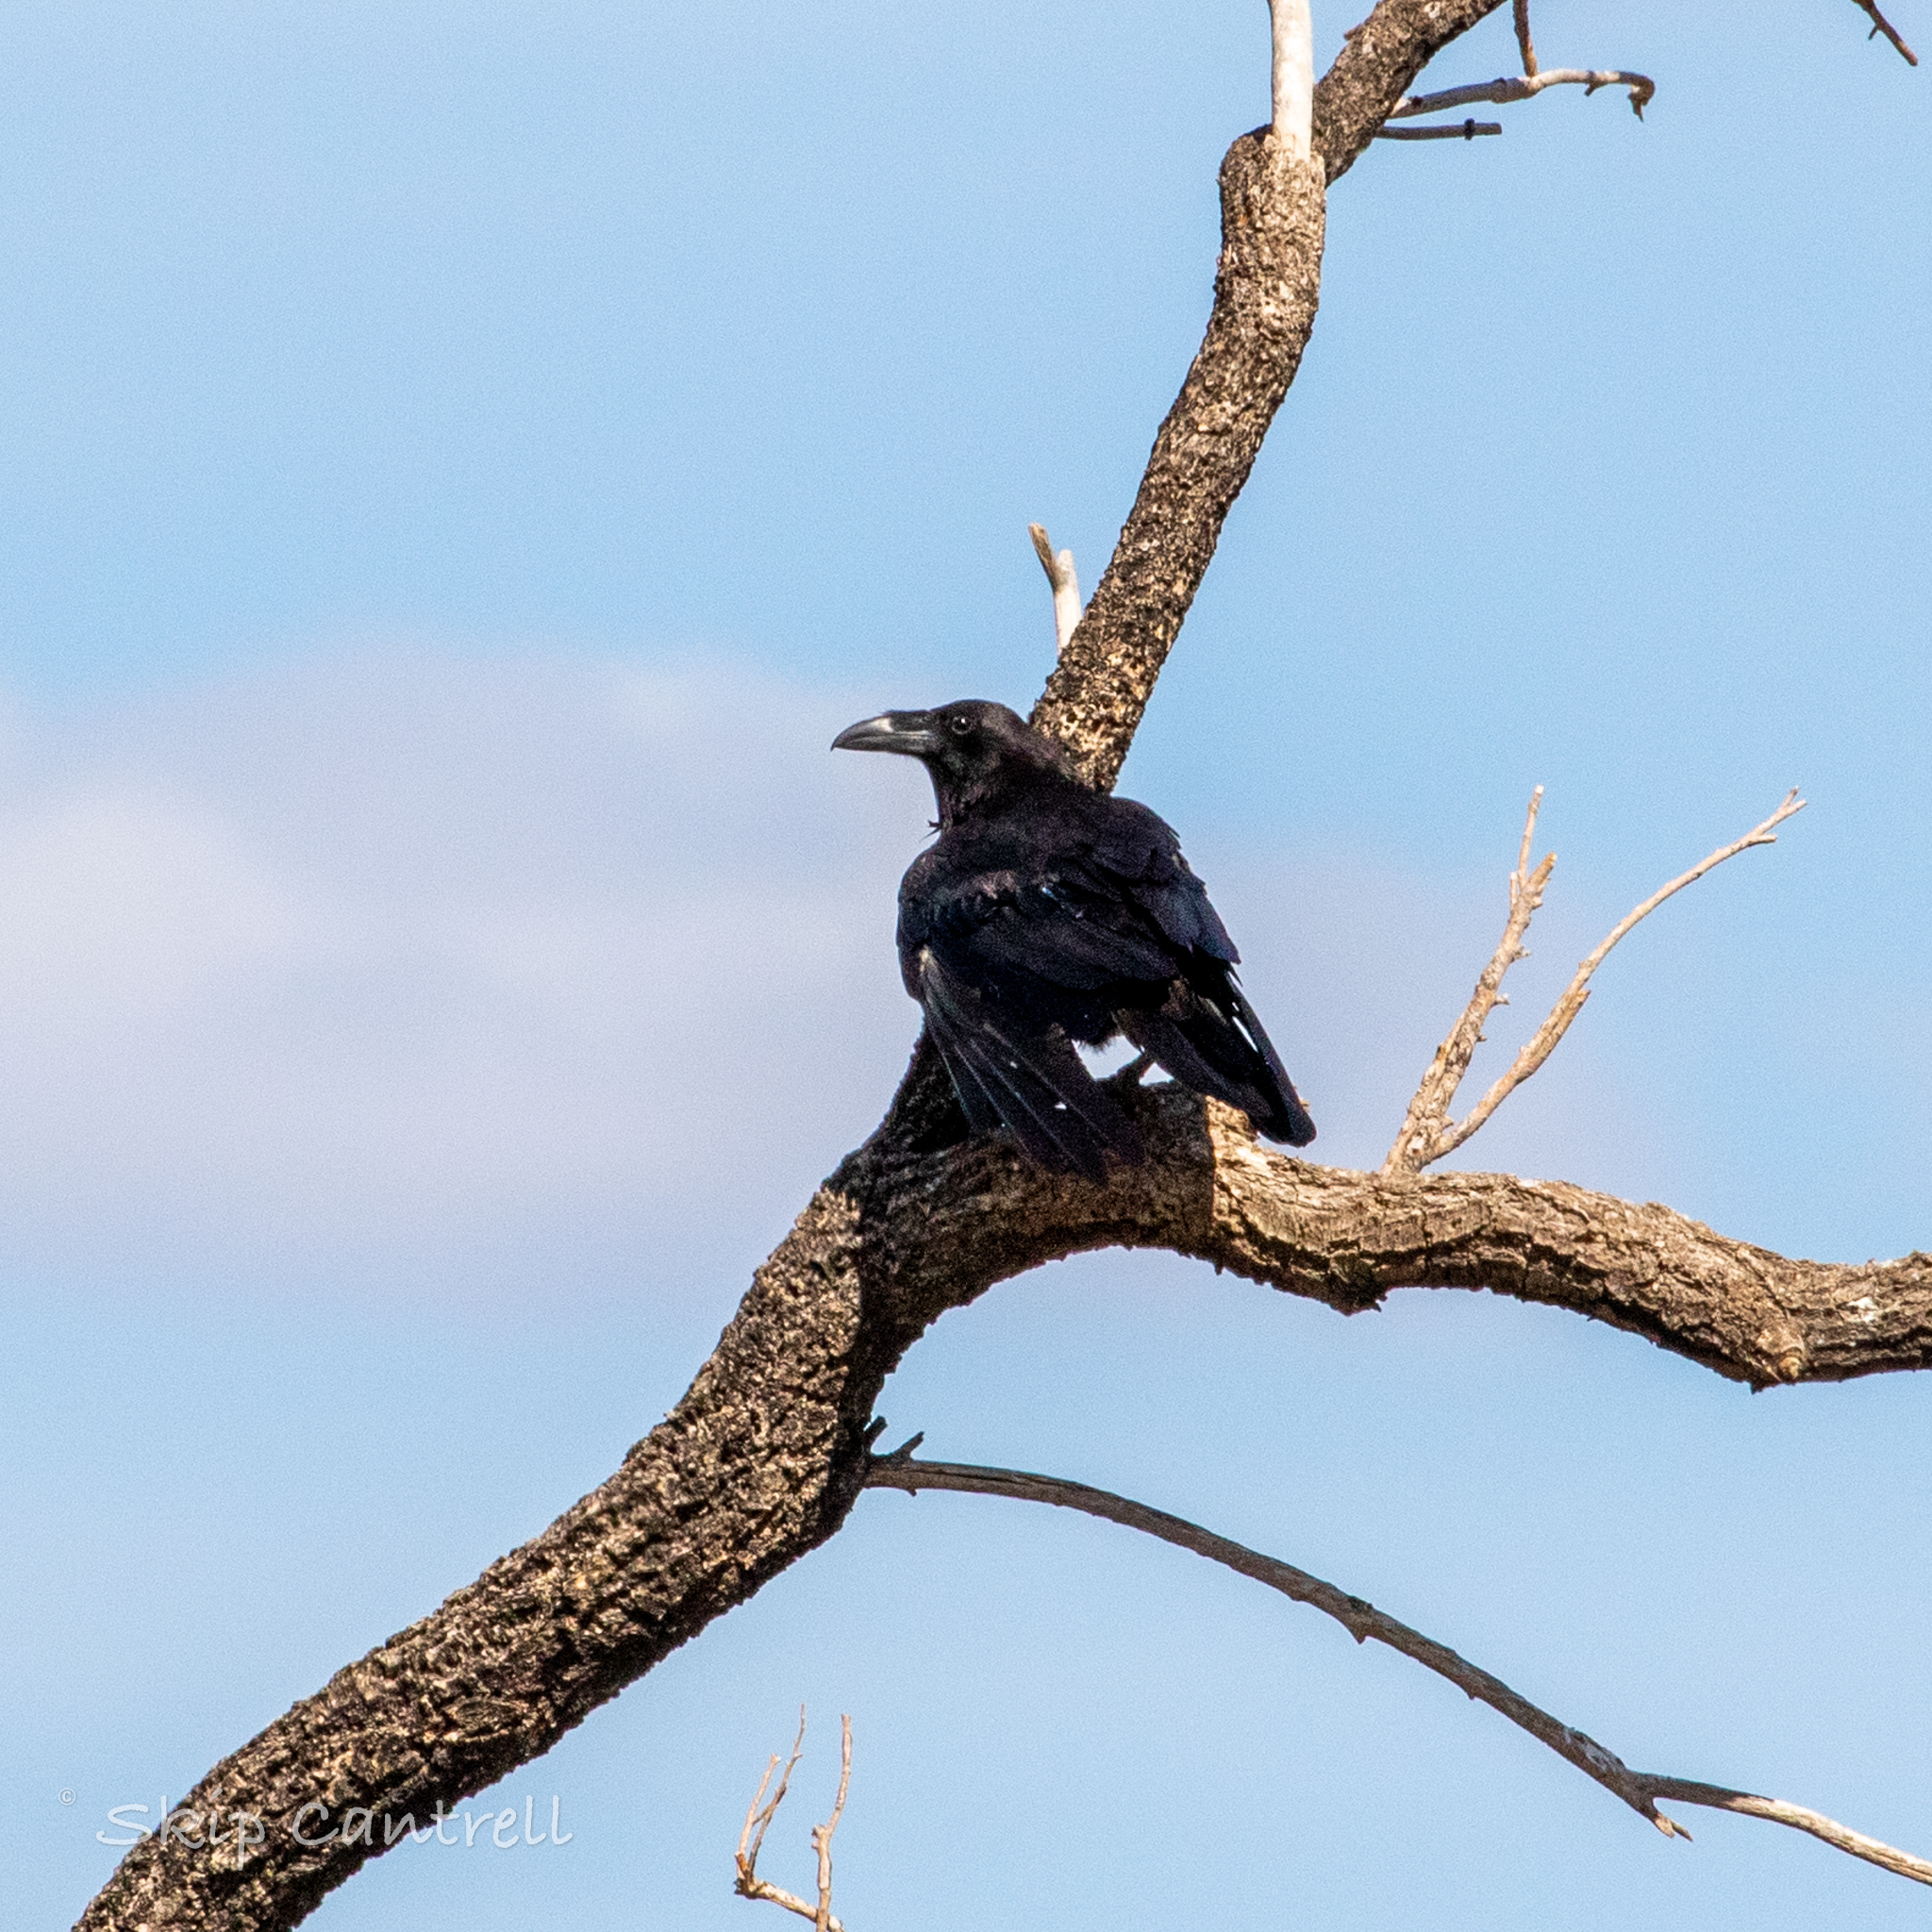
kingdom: Animalia
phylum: Chordata
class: Aves
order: Passeriformes
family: Corvidae
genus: Corvus
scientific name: Corvus corax
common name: Common raven
